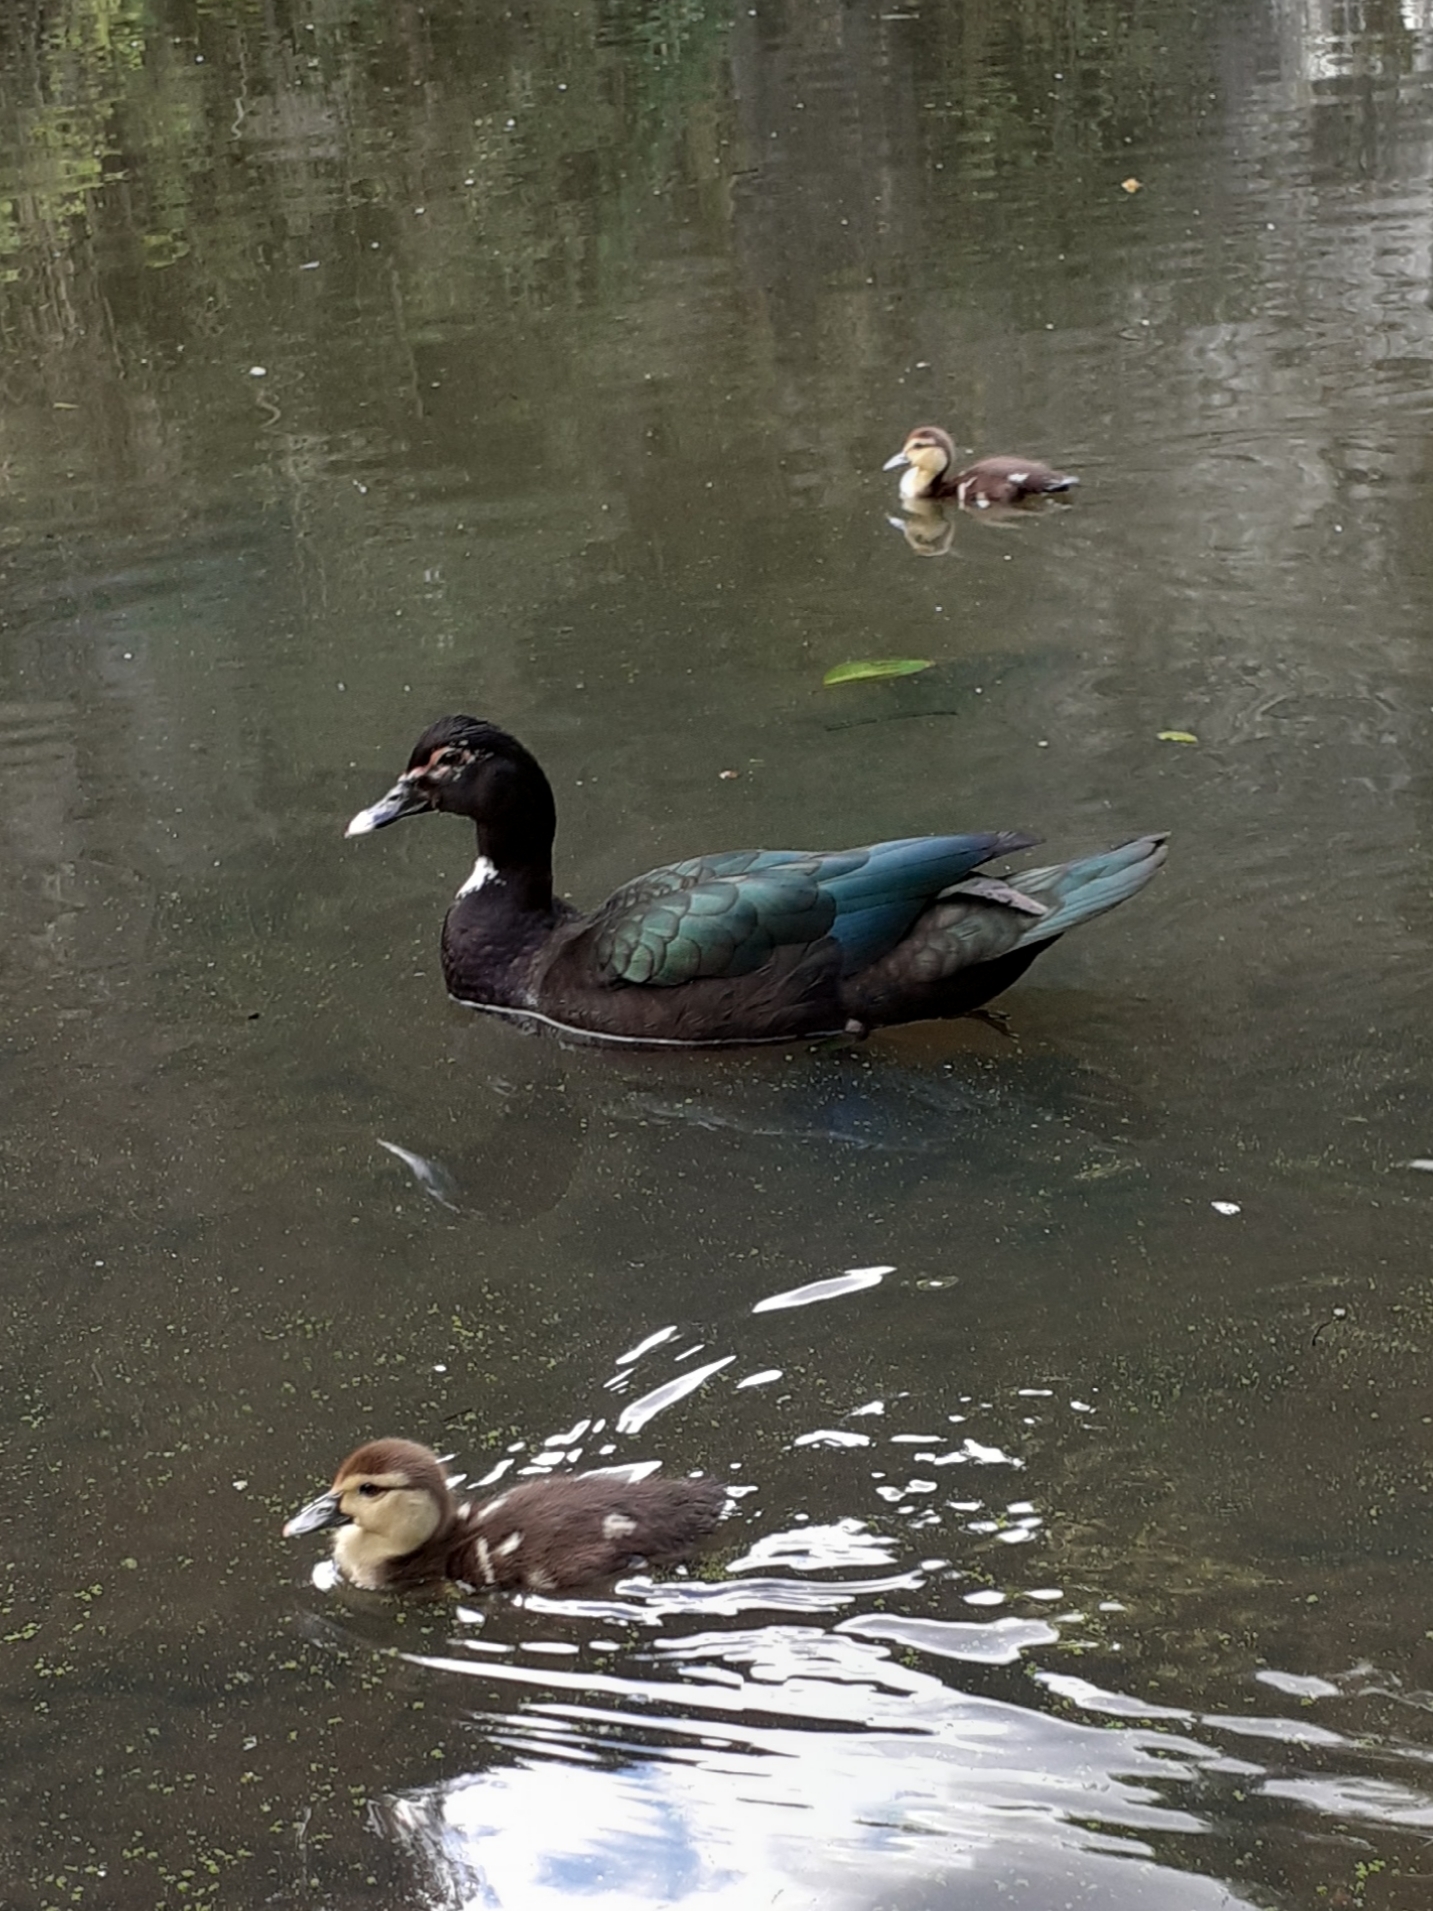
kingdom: Animalia
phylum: Chordata
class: Aves
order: Anseriformes
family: Anatidae
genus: Cairina
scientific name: Cairina moschata
